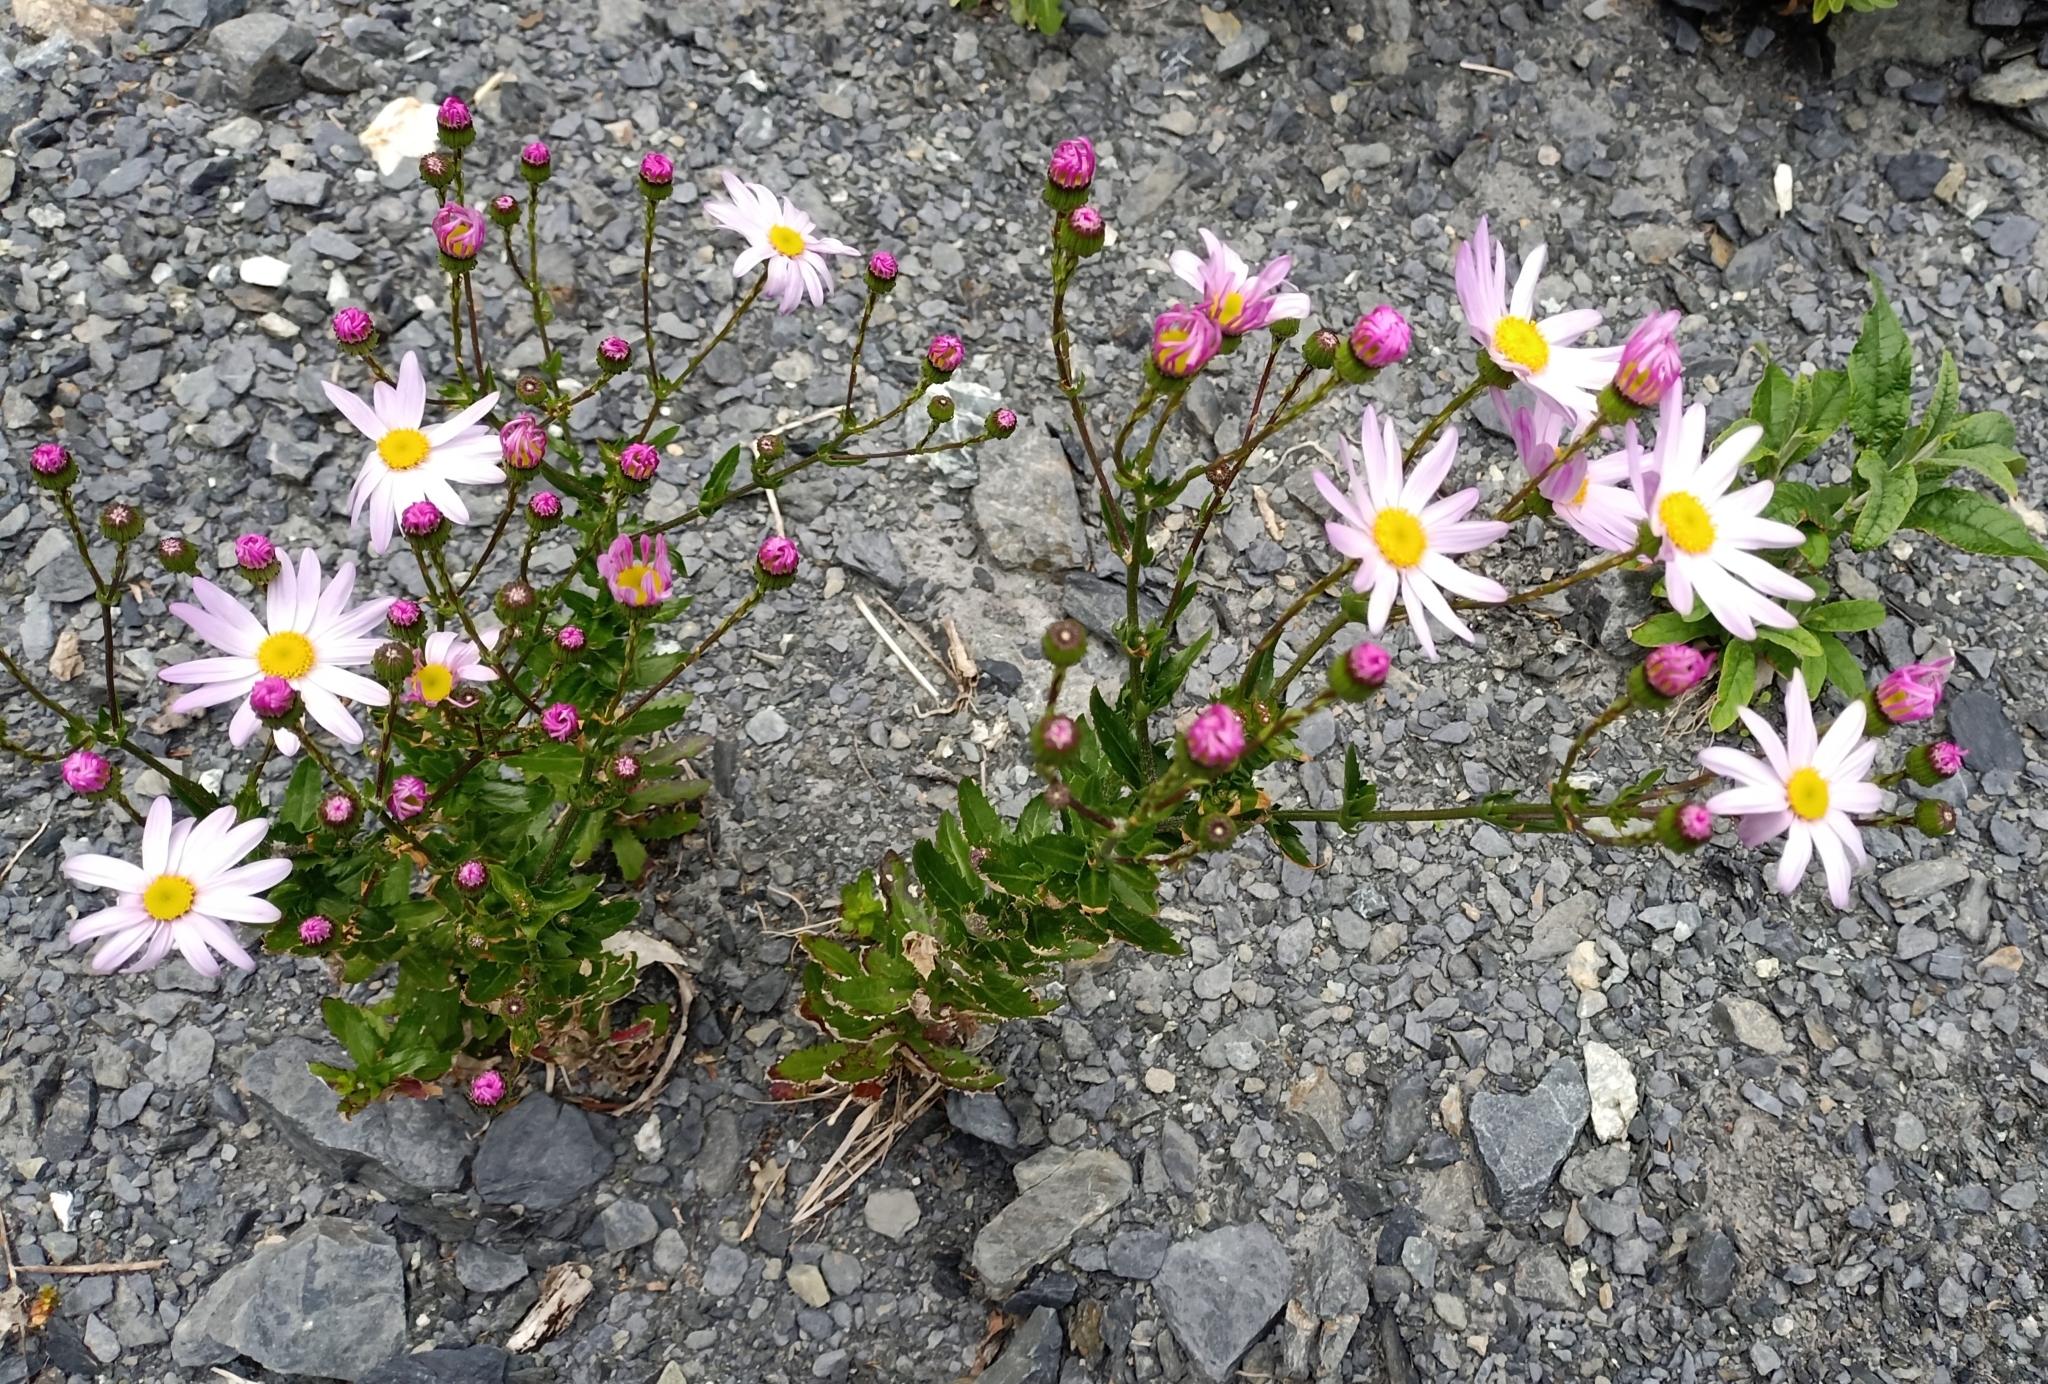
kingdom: Plantae
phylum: Tracheophyta
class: Magnoliopsida
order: Asterales
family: Asteraceae
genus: Senecio
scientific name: Senecio glastifolius
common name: Woad-leaved ragwort
